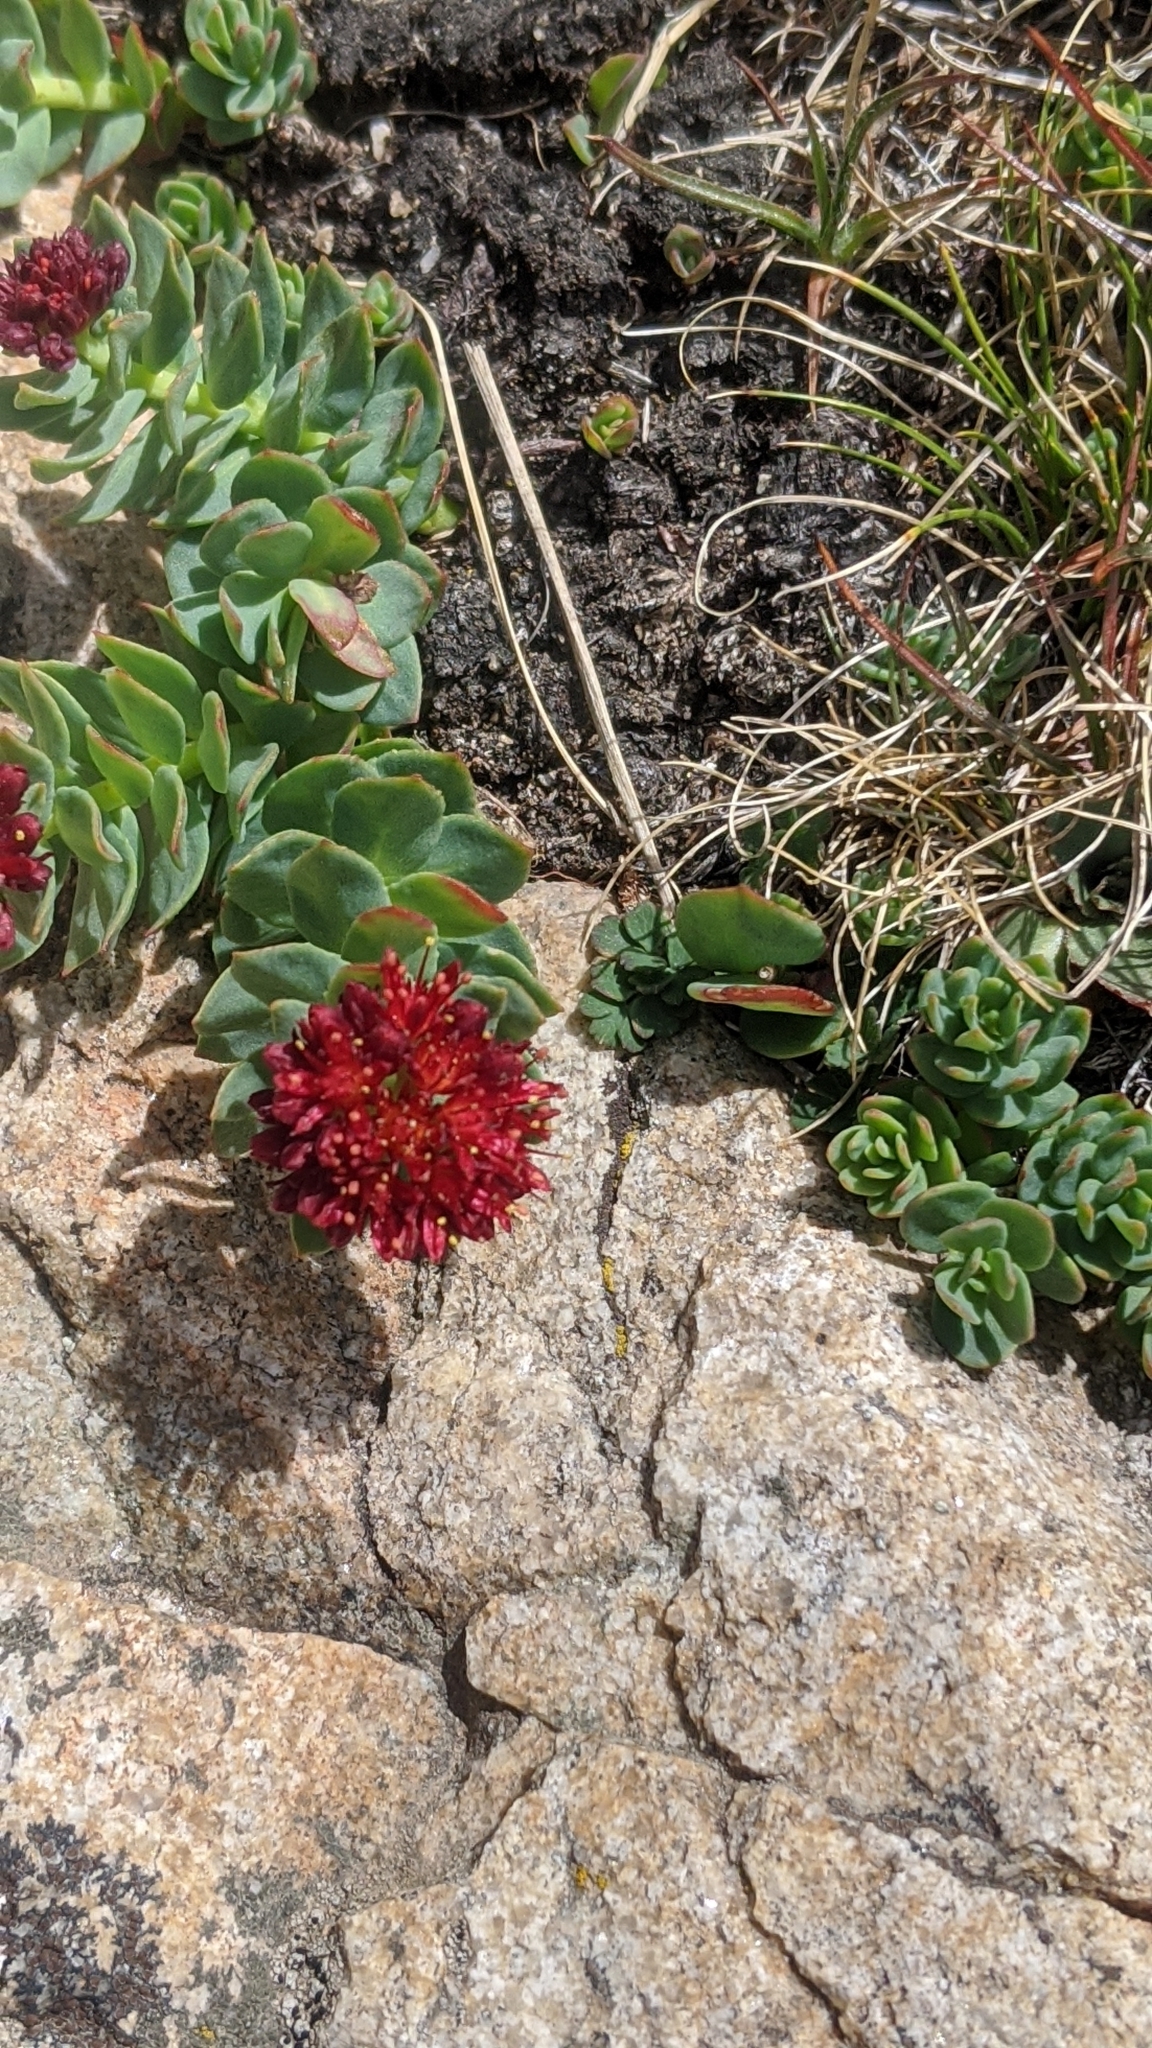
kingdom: Plantae
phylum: Tracheophyta
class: Magnoliopsida
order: Saxifragales
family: Crassulaceae
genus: Rhodiola
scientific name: Rhodiola integrifolia
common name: Western roseroot
